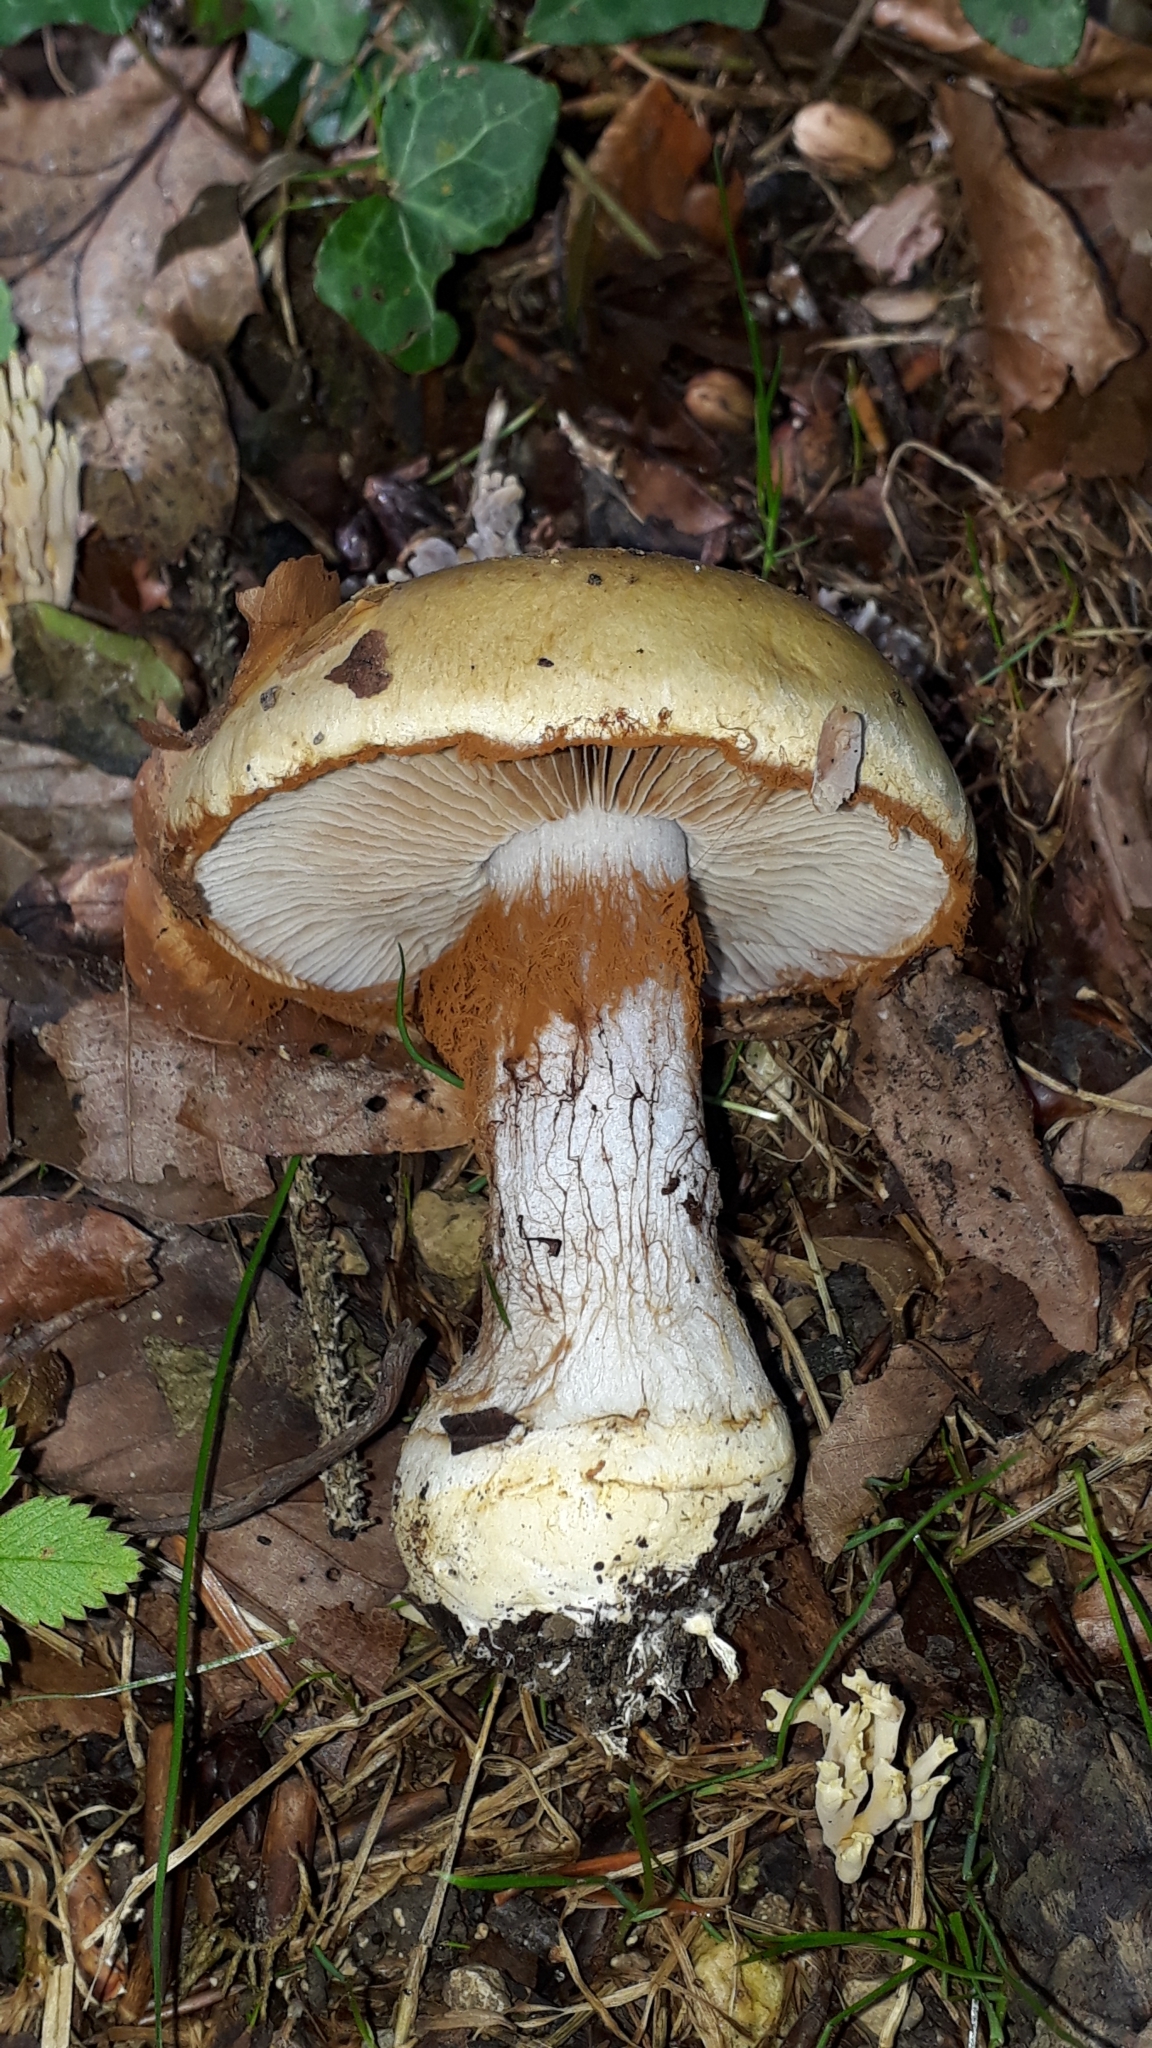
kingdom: Fungi
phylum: Basidiomycota
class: Agaricomycetes
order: Agaricales
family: Cortinariaceae
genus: Cortinarius
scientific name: Cortinarius anserinus
